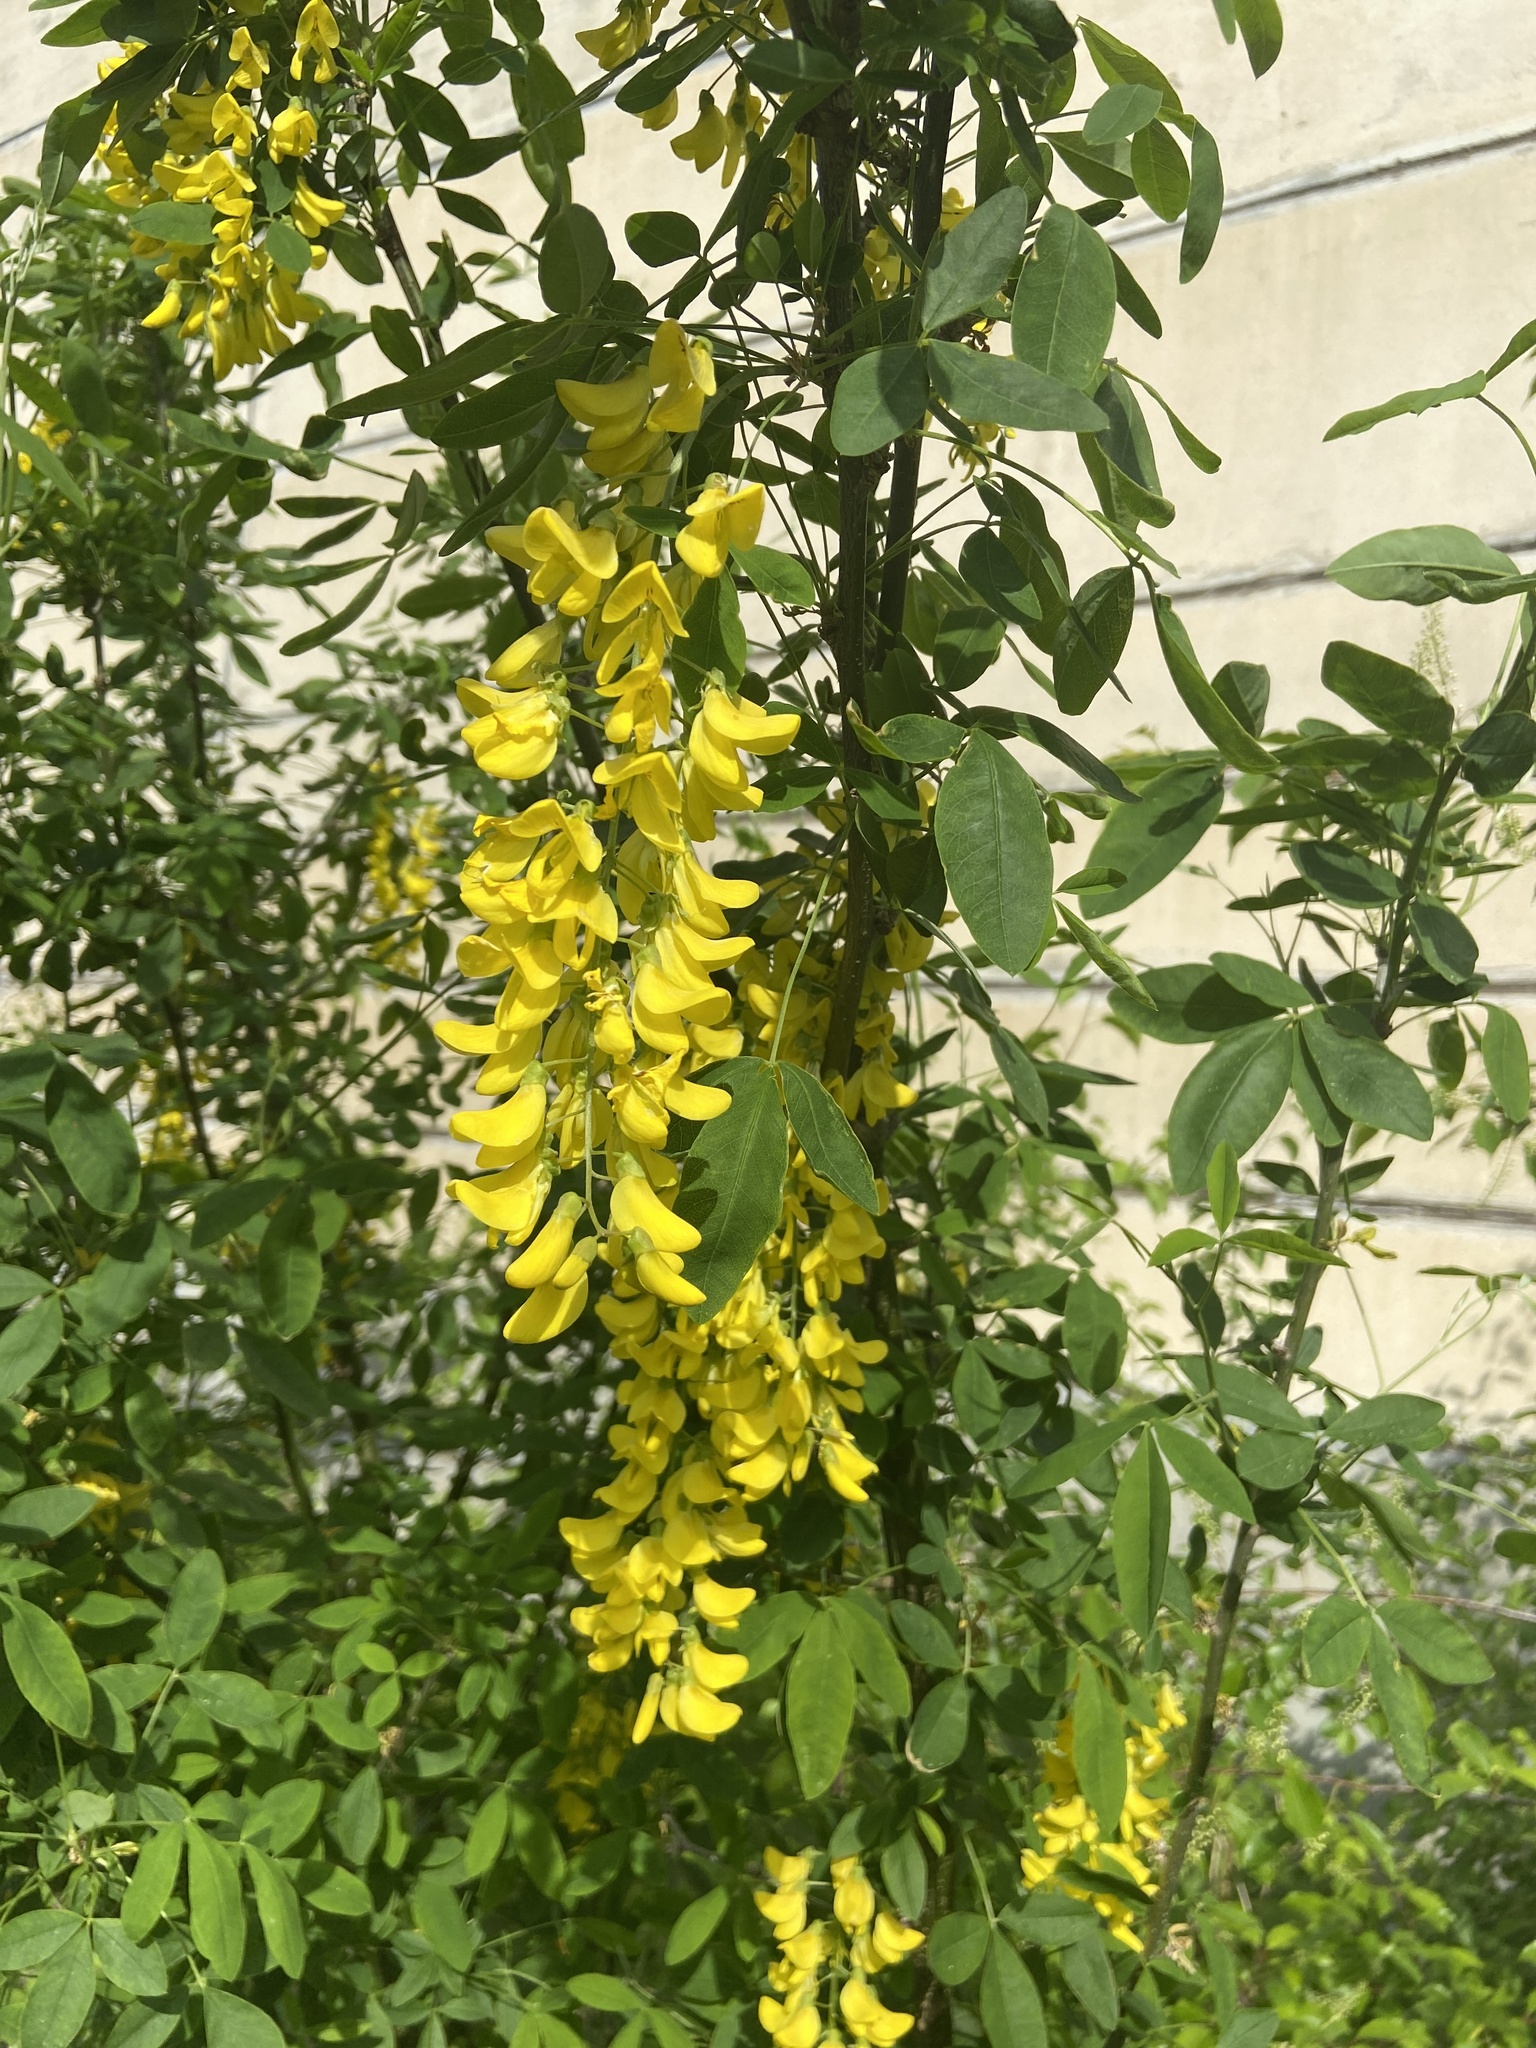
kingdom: Plantae
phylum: Tracheophyta
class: Magnoliopsida
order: Fabales
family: Fabaceae
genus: Laburnum
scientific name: Laburnum anagyroides
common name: Laburnum
